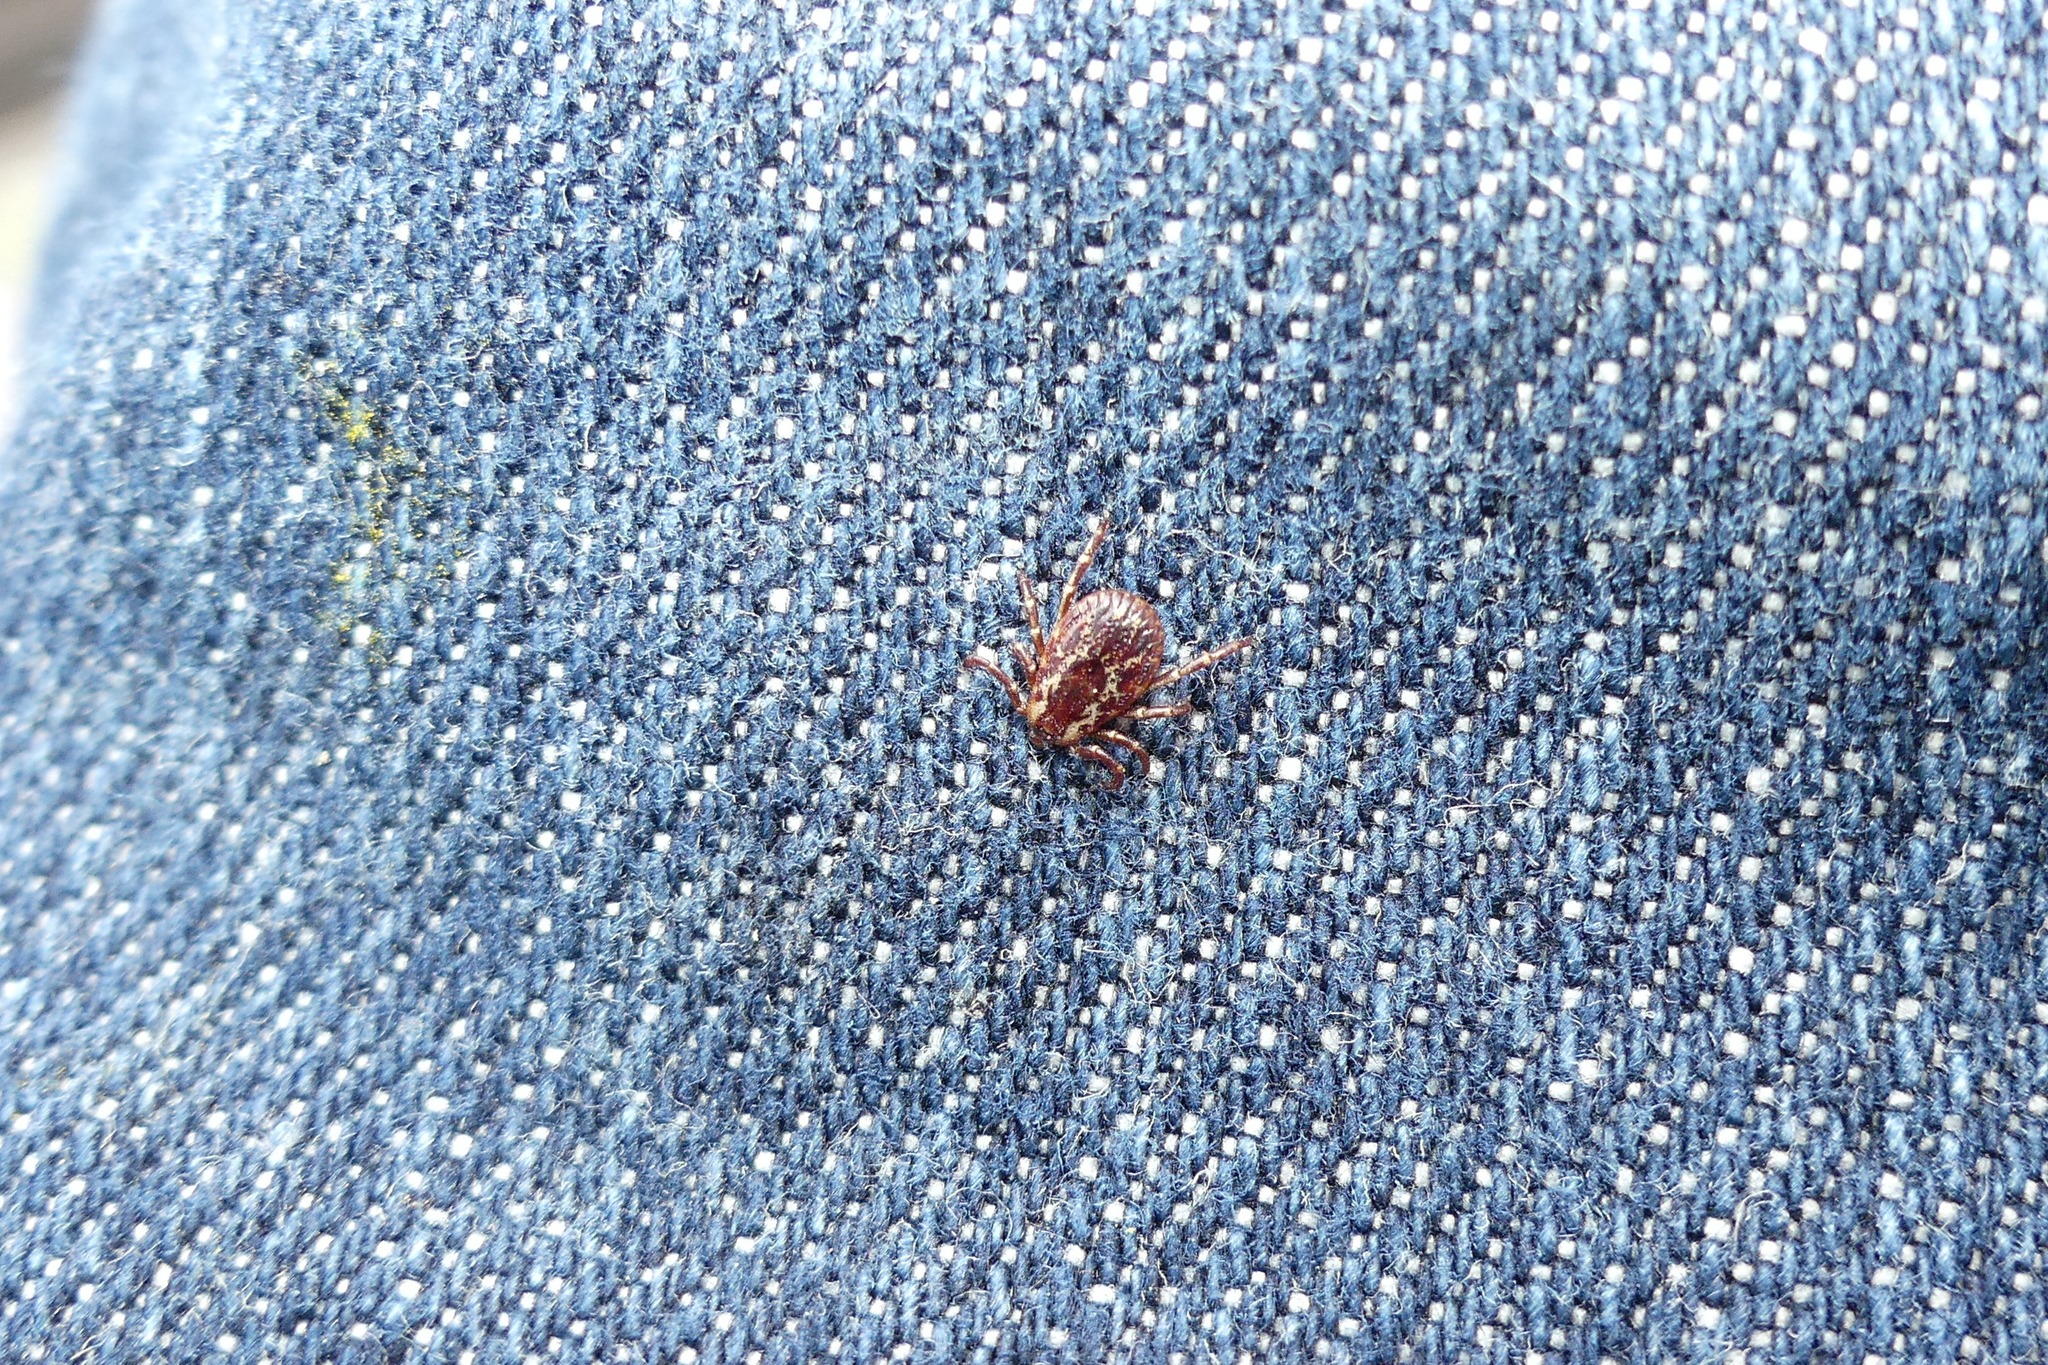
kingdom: Animalia
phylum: Arthropoda
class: Arachnida
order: Ixodida
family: Ixodidae
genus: Dermacentor
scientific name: Dermacentor variabilis
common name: American dog tick
